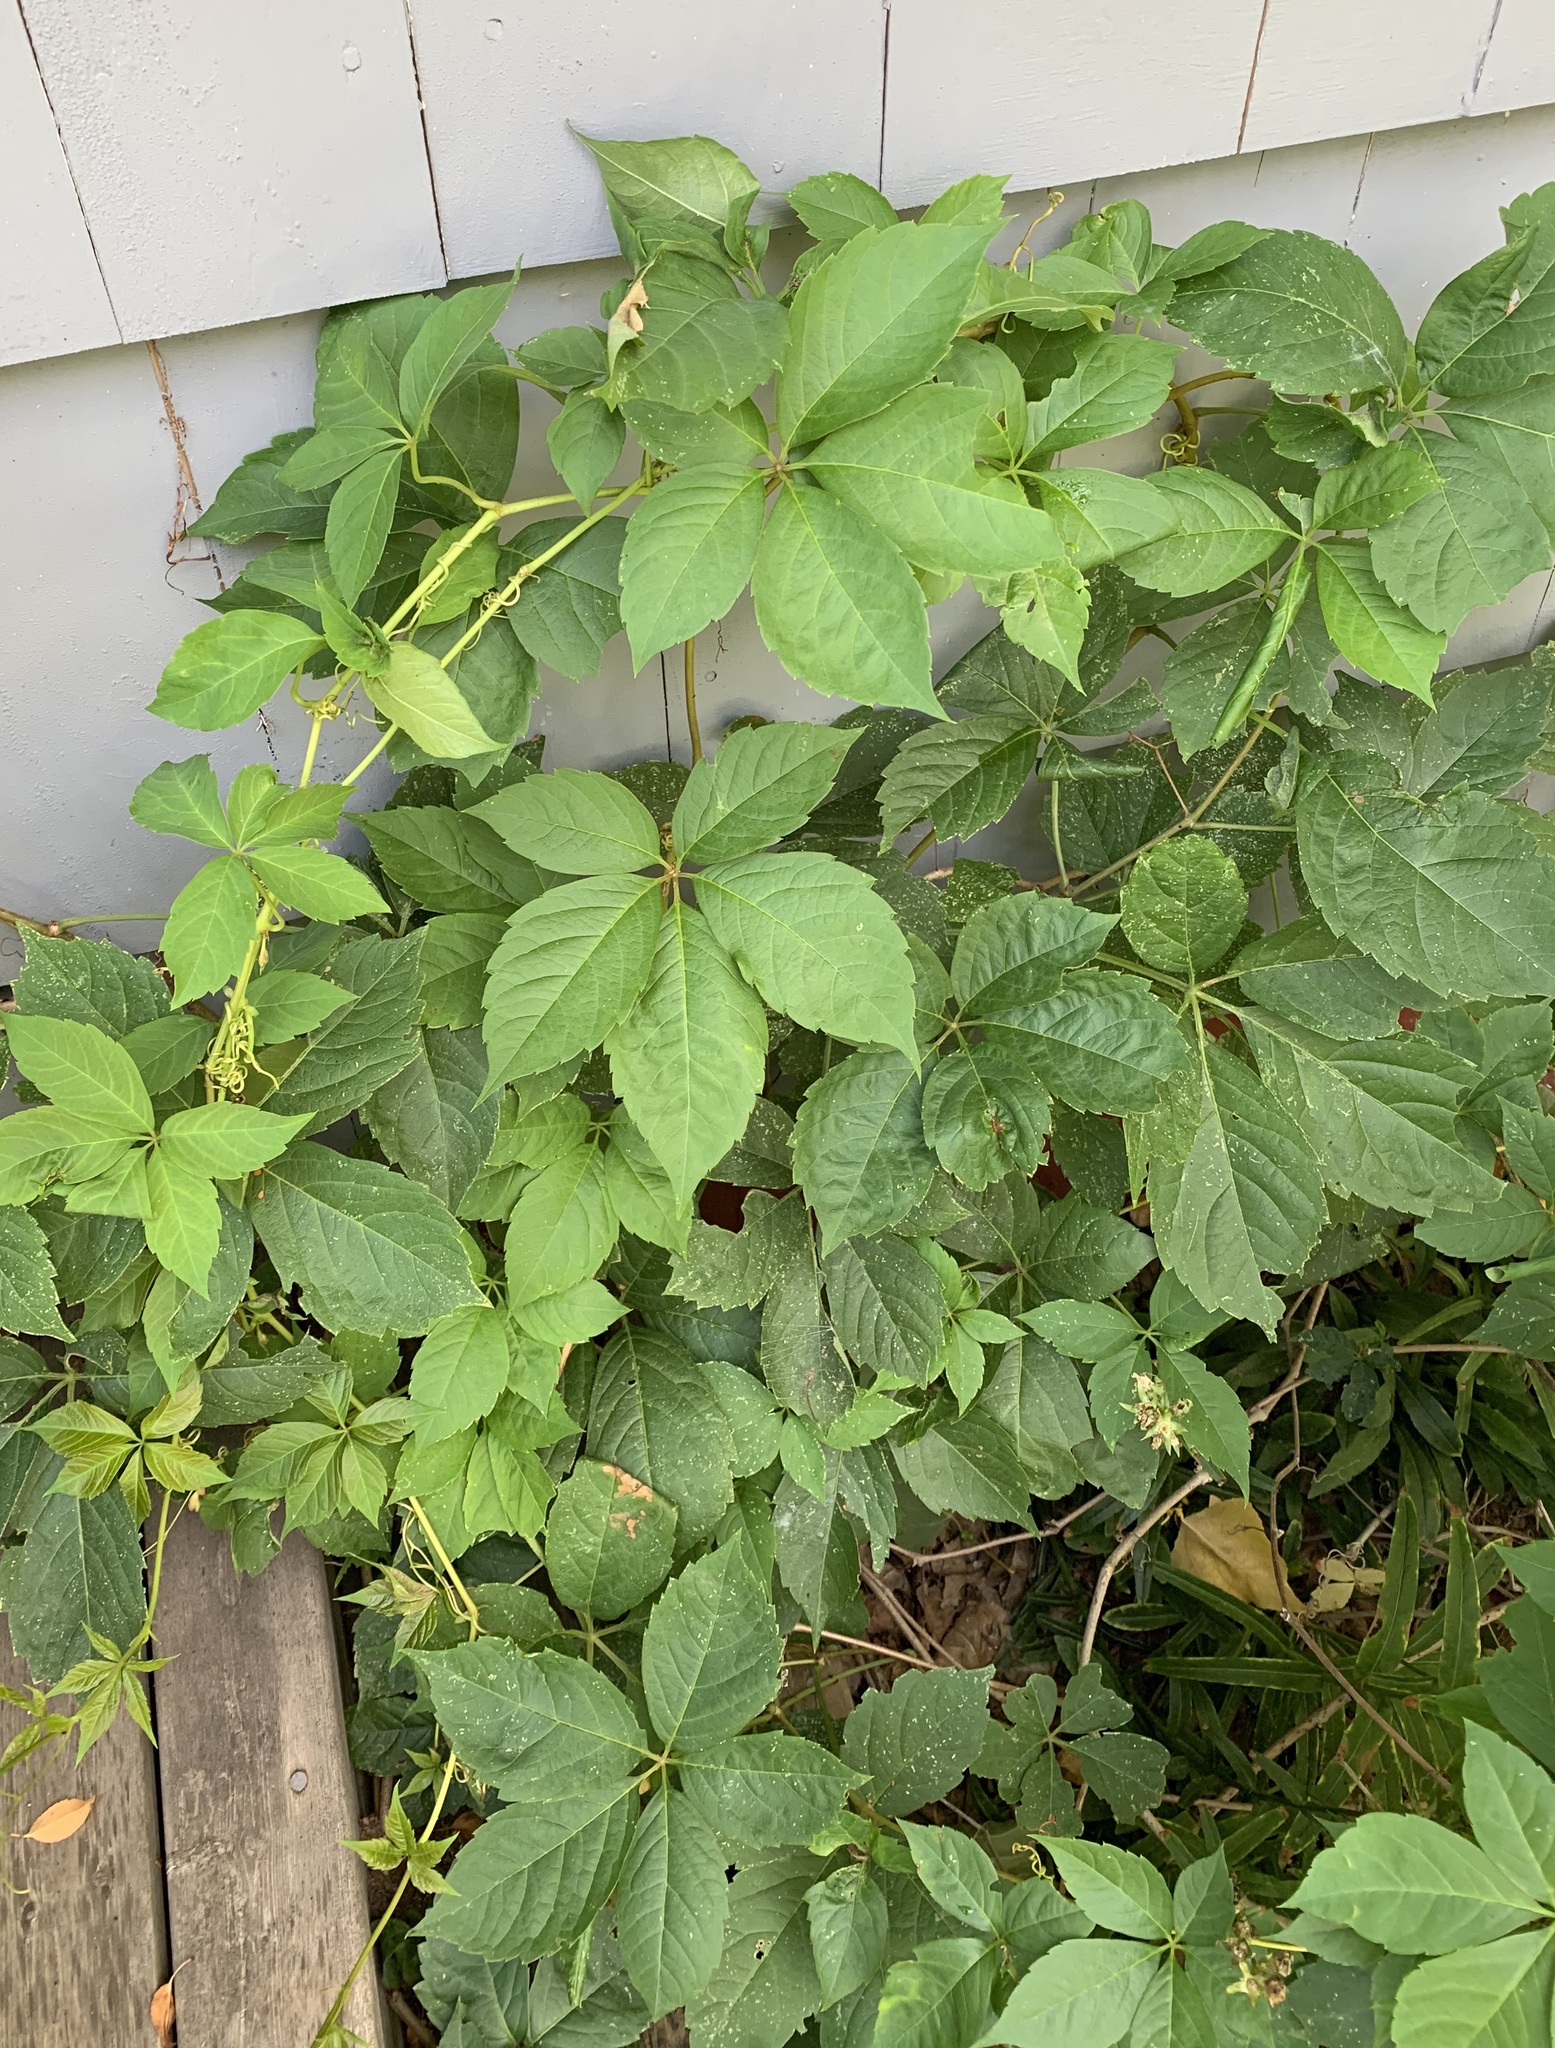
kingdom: Plantae
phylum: Tracheophyta
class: Magnoliopsida
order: Vitales
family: Vitaceae
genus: Parthenocissus
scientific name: Parthenocissus inserta
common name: False virginia-creeper
